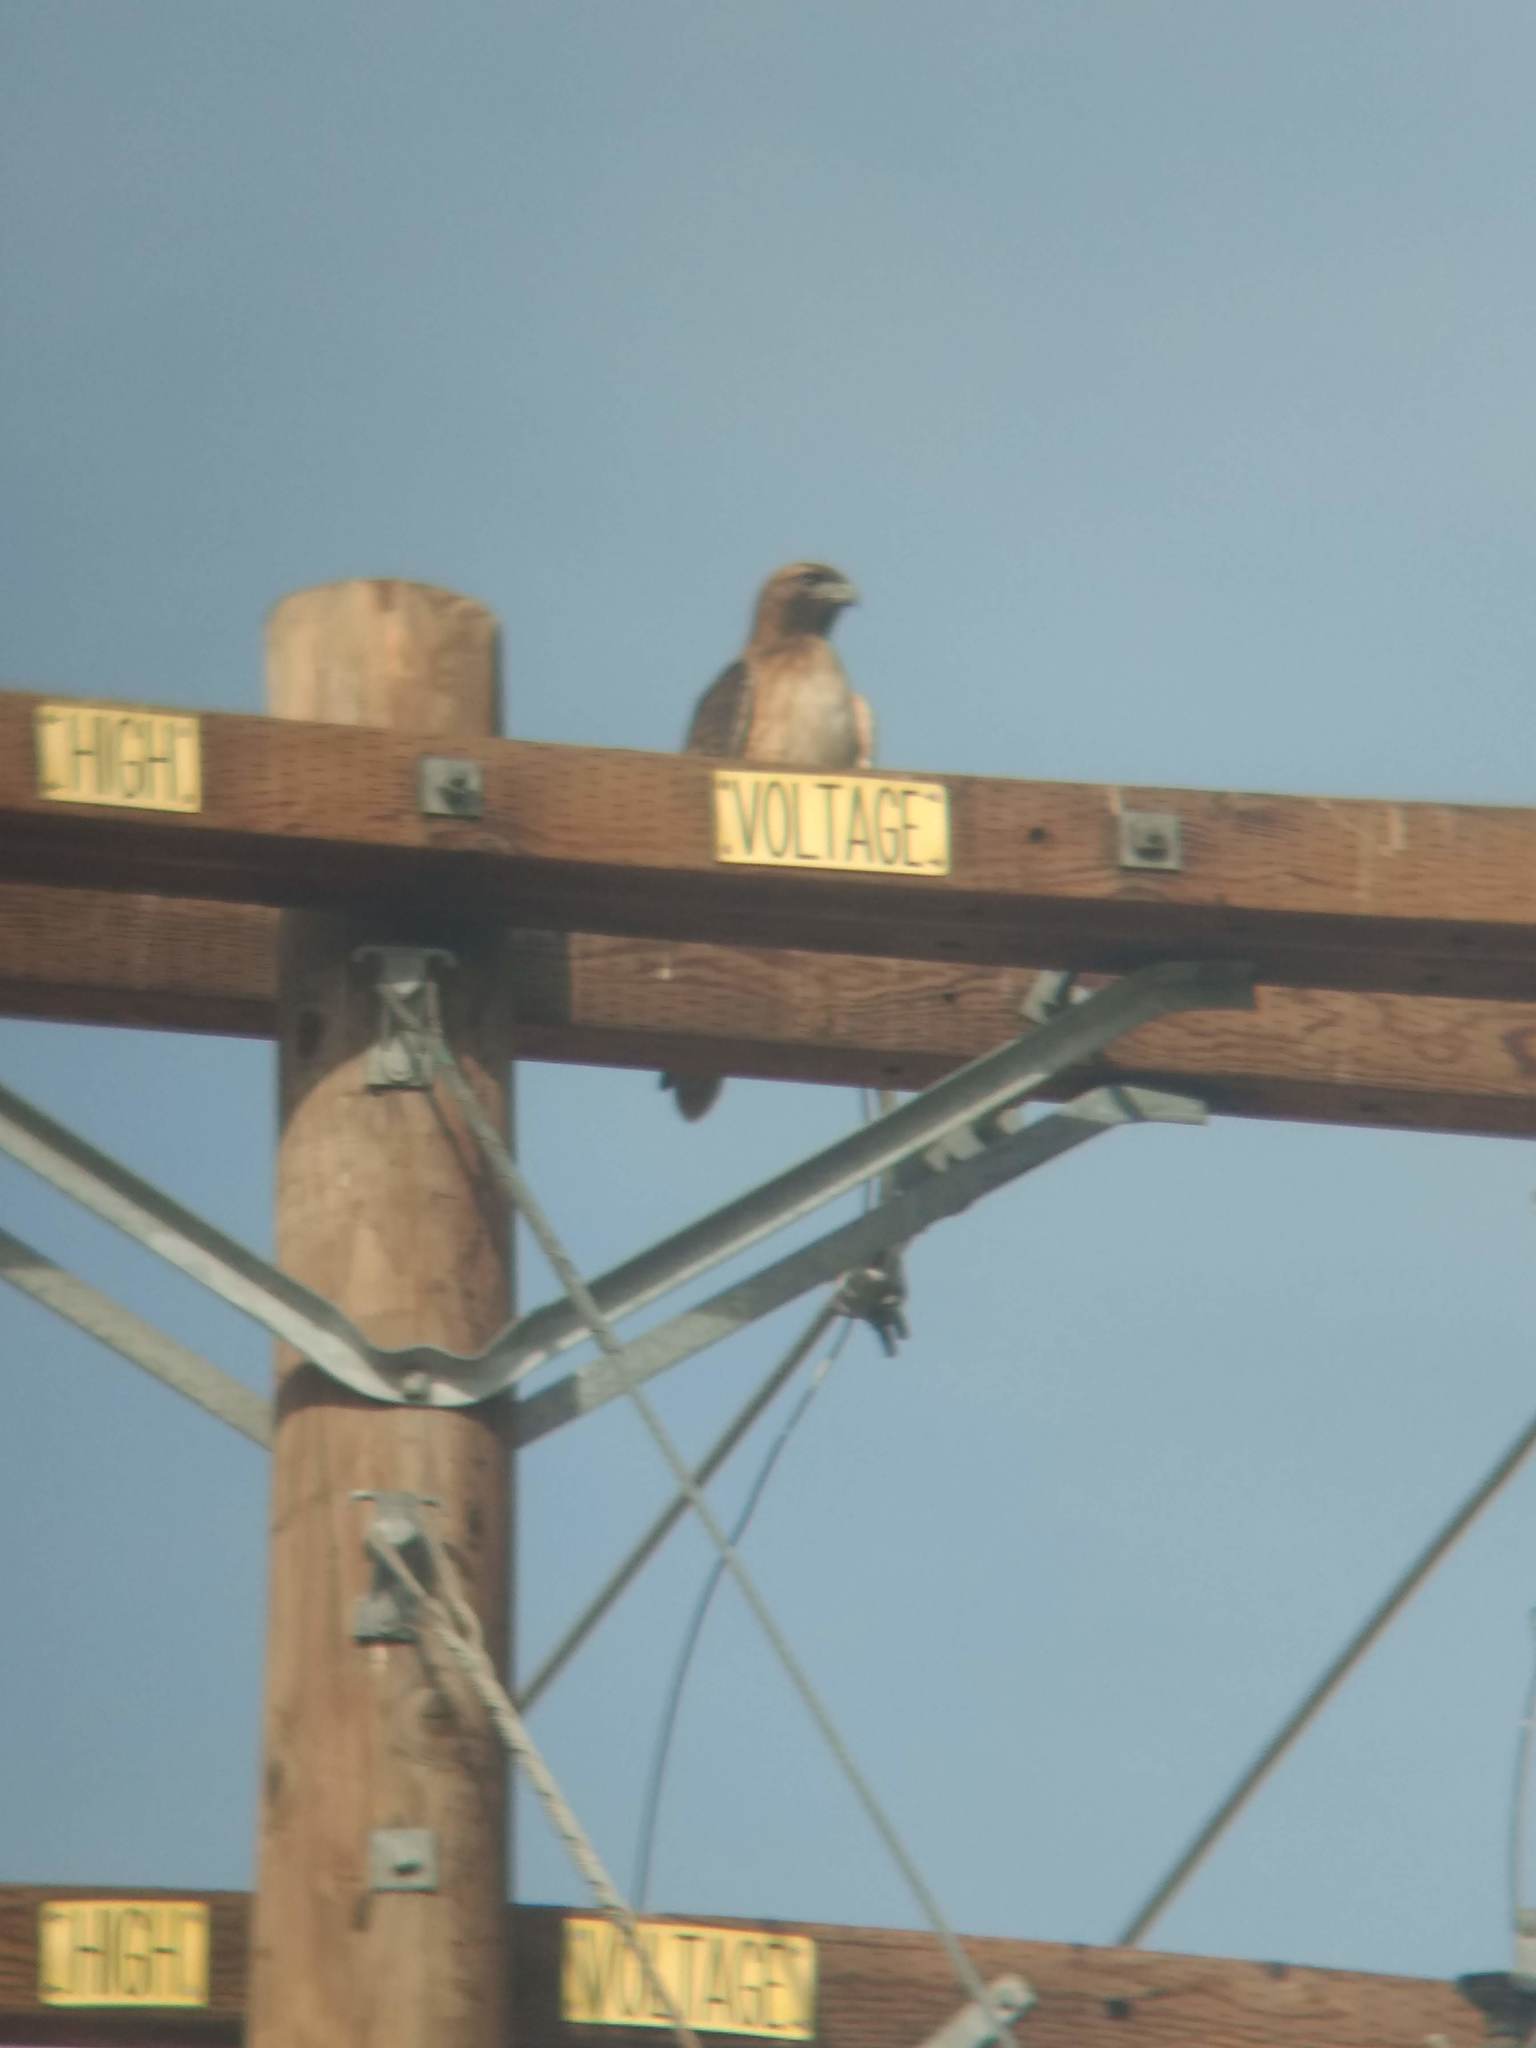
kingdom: Animalia
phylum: Chordata
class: Aves
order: Accipitriformes
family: Accipitridae
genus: Buteo
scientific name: Buteo jamaicensis
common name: Red-tailed hawk
